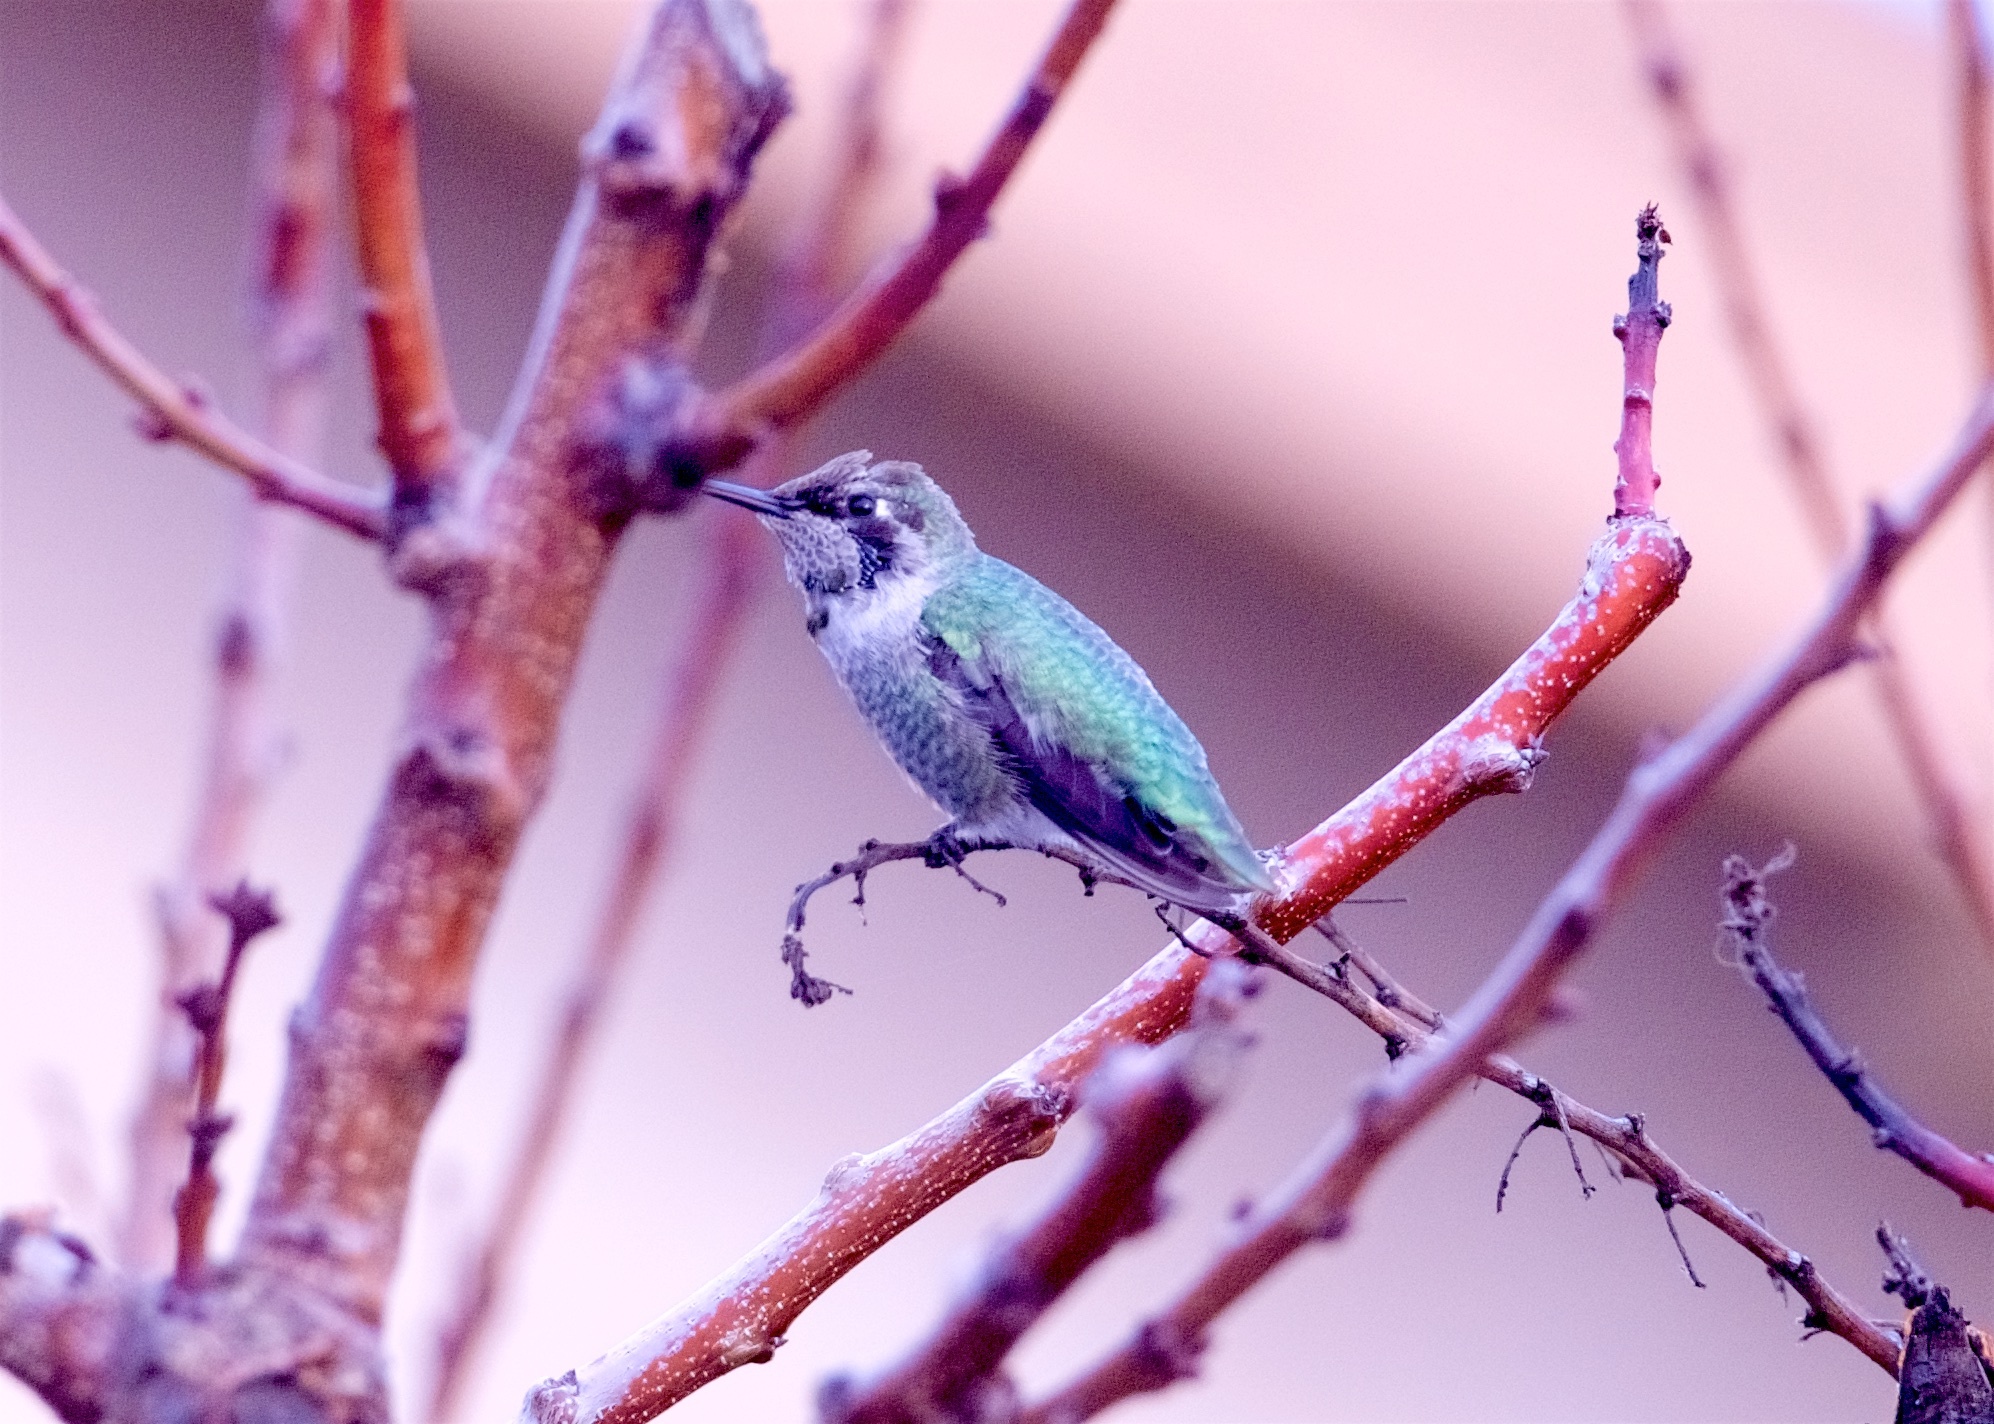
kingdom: Animalia
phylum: Chordata
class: Aves
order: Apodiformes
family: Trochilidae
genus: Calypte
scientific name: Calypte anna
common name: Anna's hummingbird
